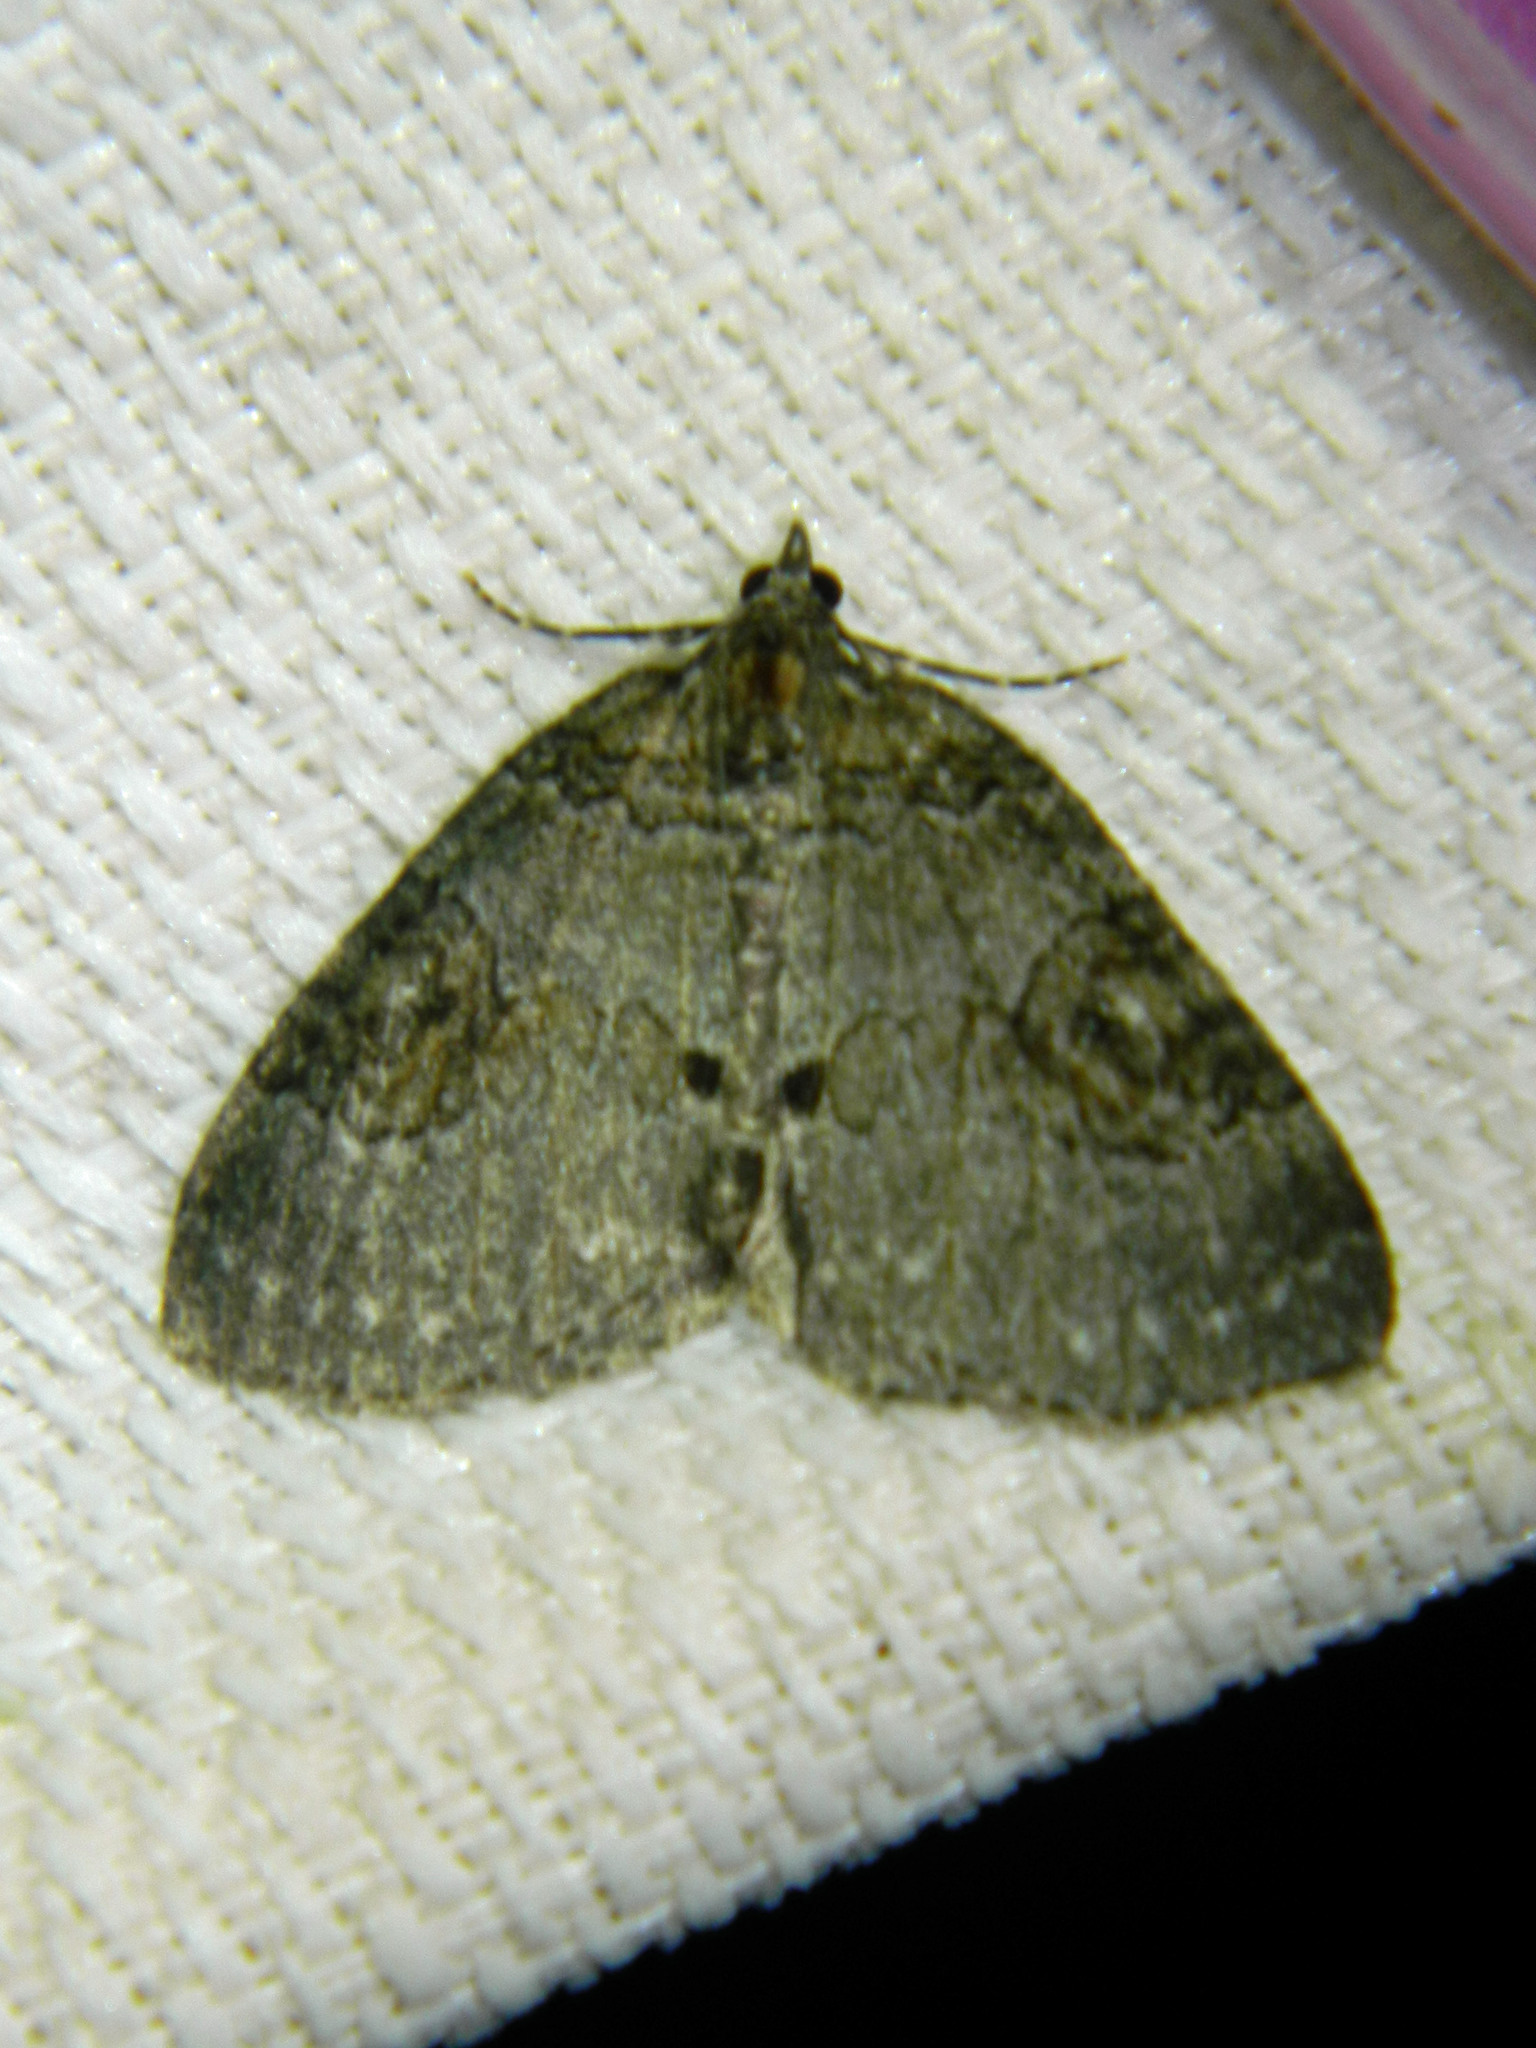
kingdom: Animalia
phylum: Arthropoda
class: Insecta
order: Lepidoptera
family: Geometridae
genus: Plemyria
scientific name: Plemyria georgii
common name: George's carpet moth
